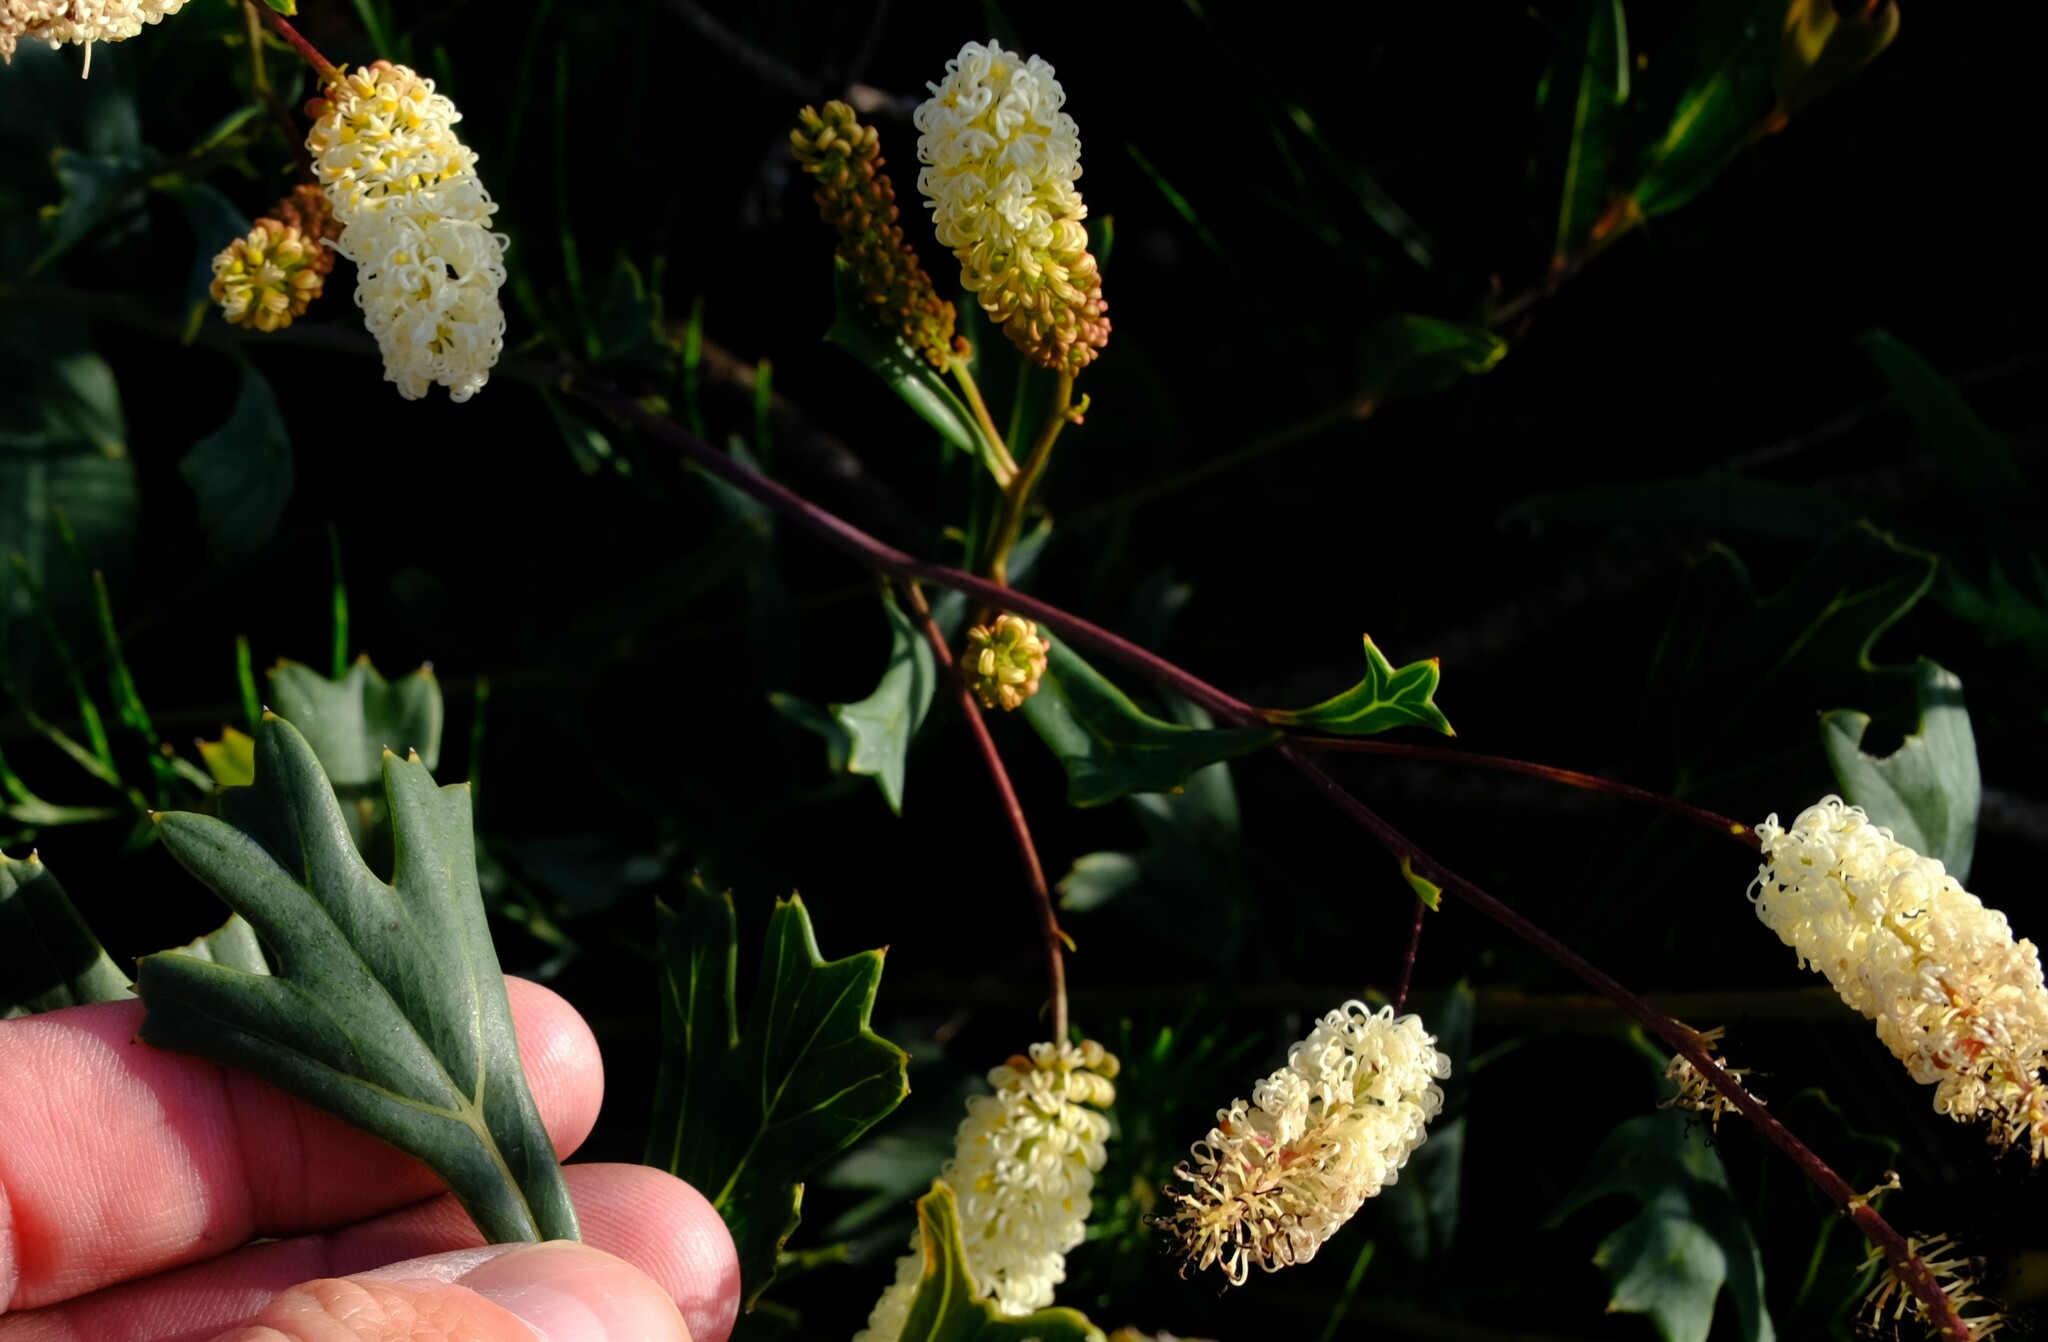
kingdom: Plantae
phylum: Tracheophyta
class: Magnoliopsida
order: Proteales
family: Proteaceae
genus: Grevillea
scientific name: Grevillea synaphea
